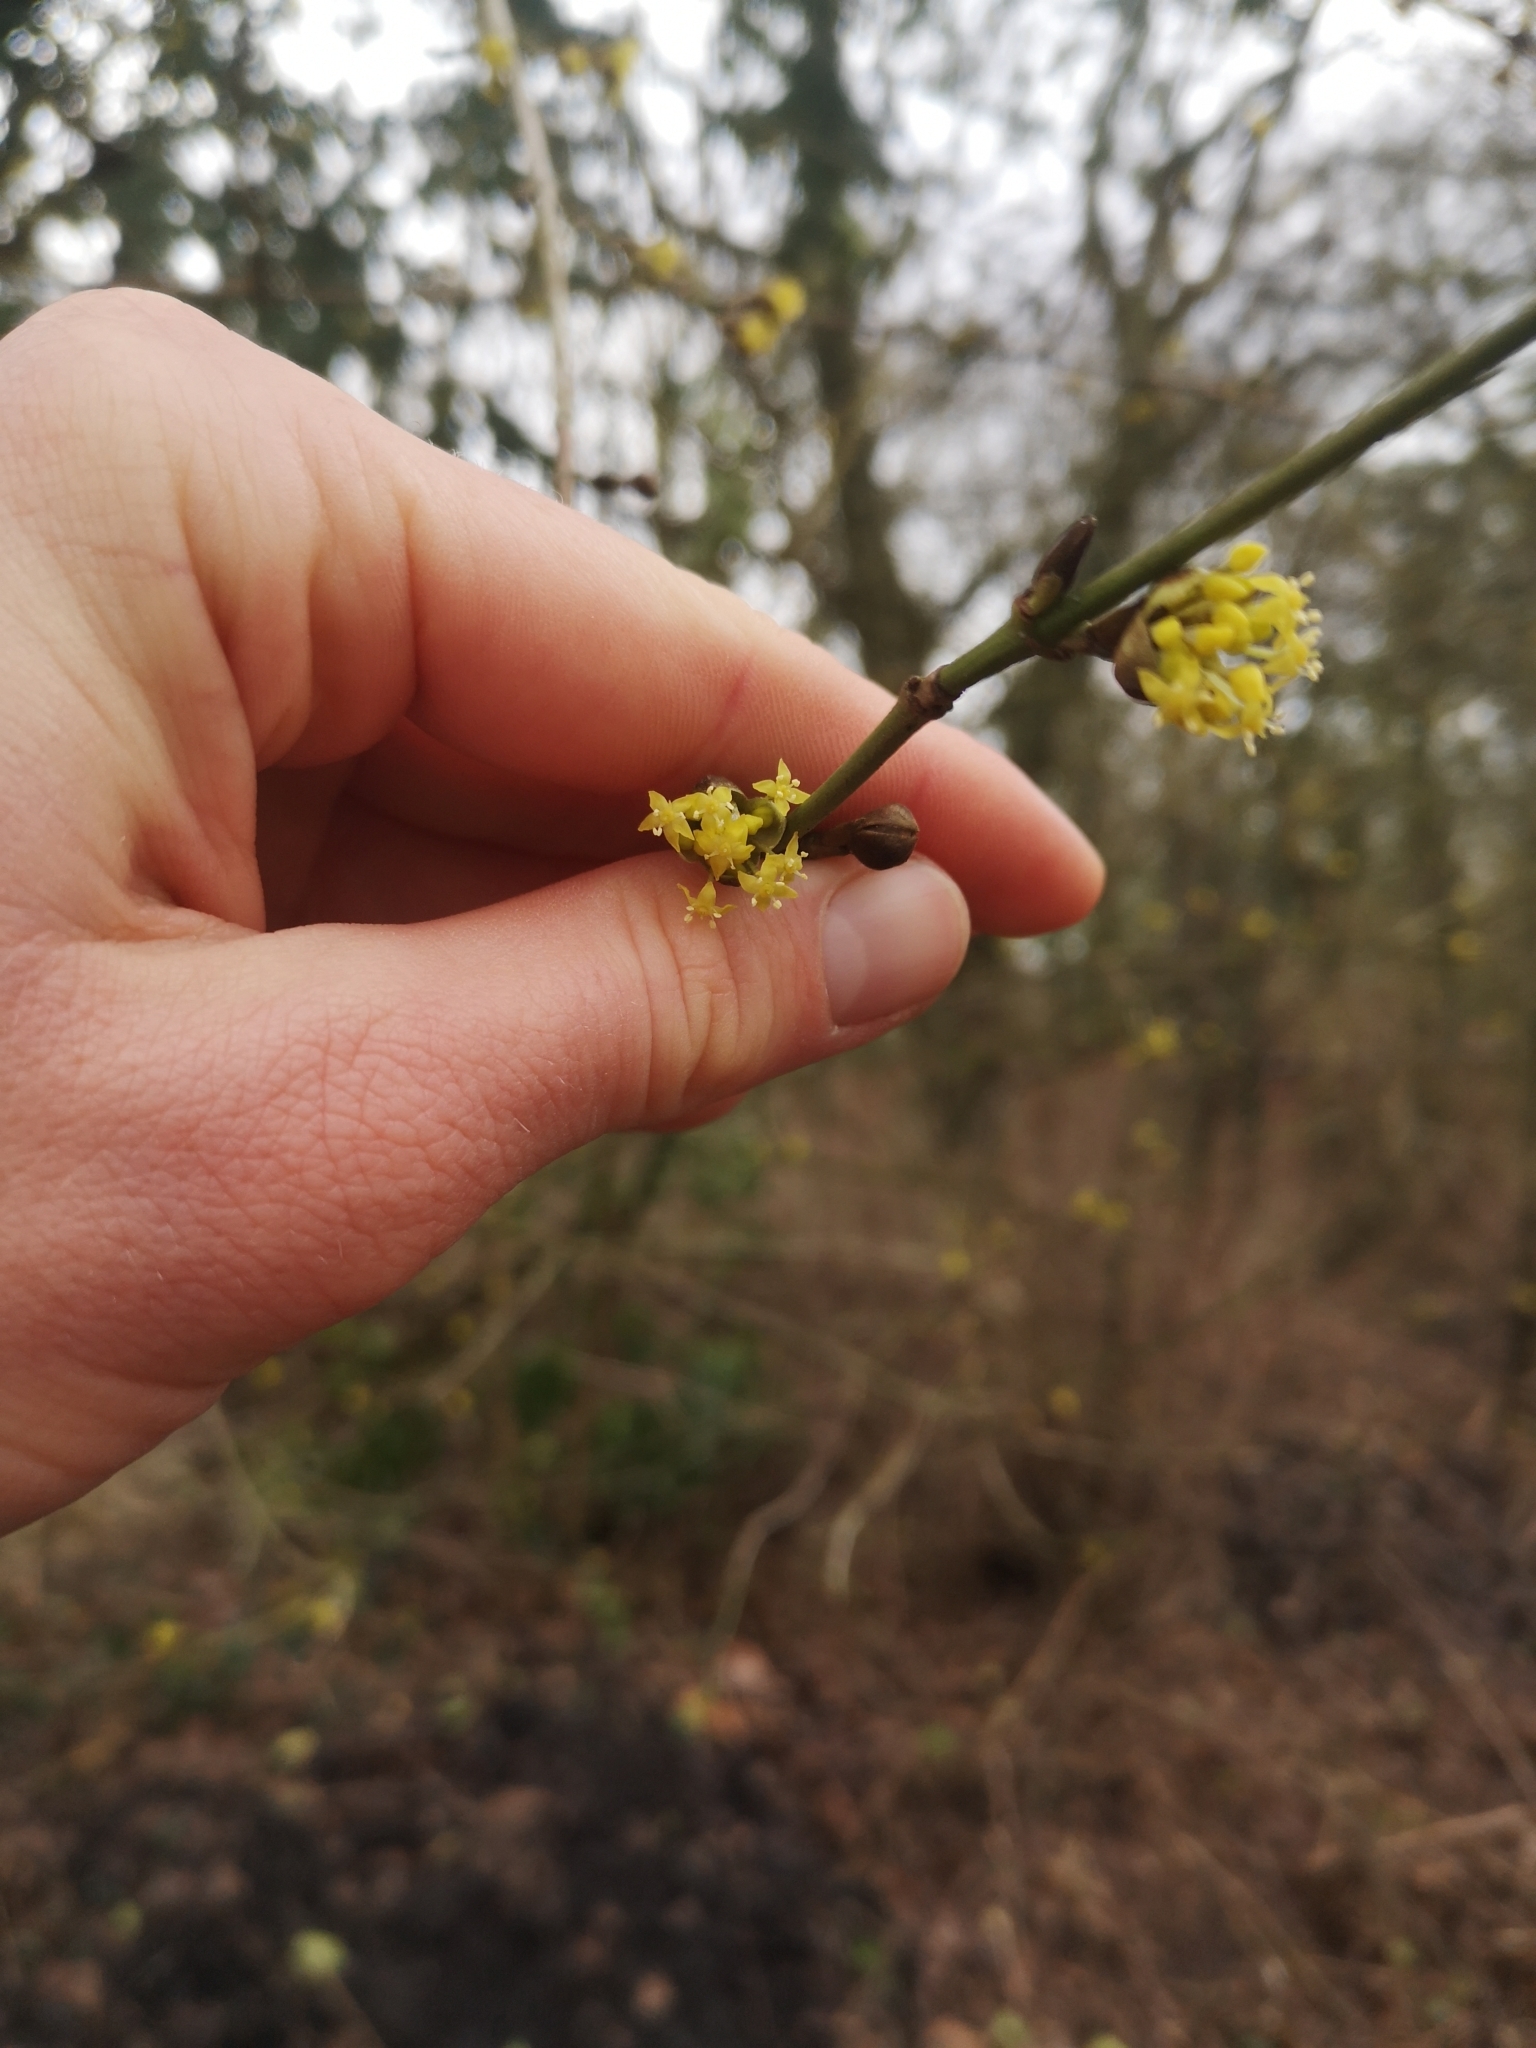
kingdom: Plantae
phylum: Tracheophyta
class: Magnoliopsida
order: Cornales
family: Cornaceae
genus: Cornus
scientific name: Cornus mas
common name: Cornelian-cherry
